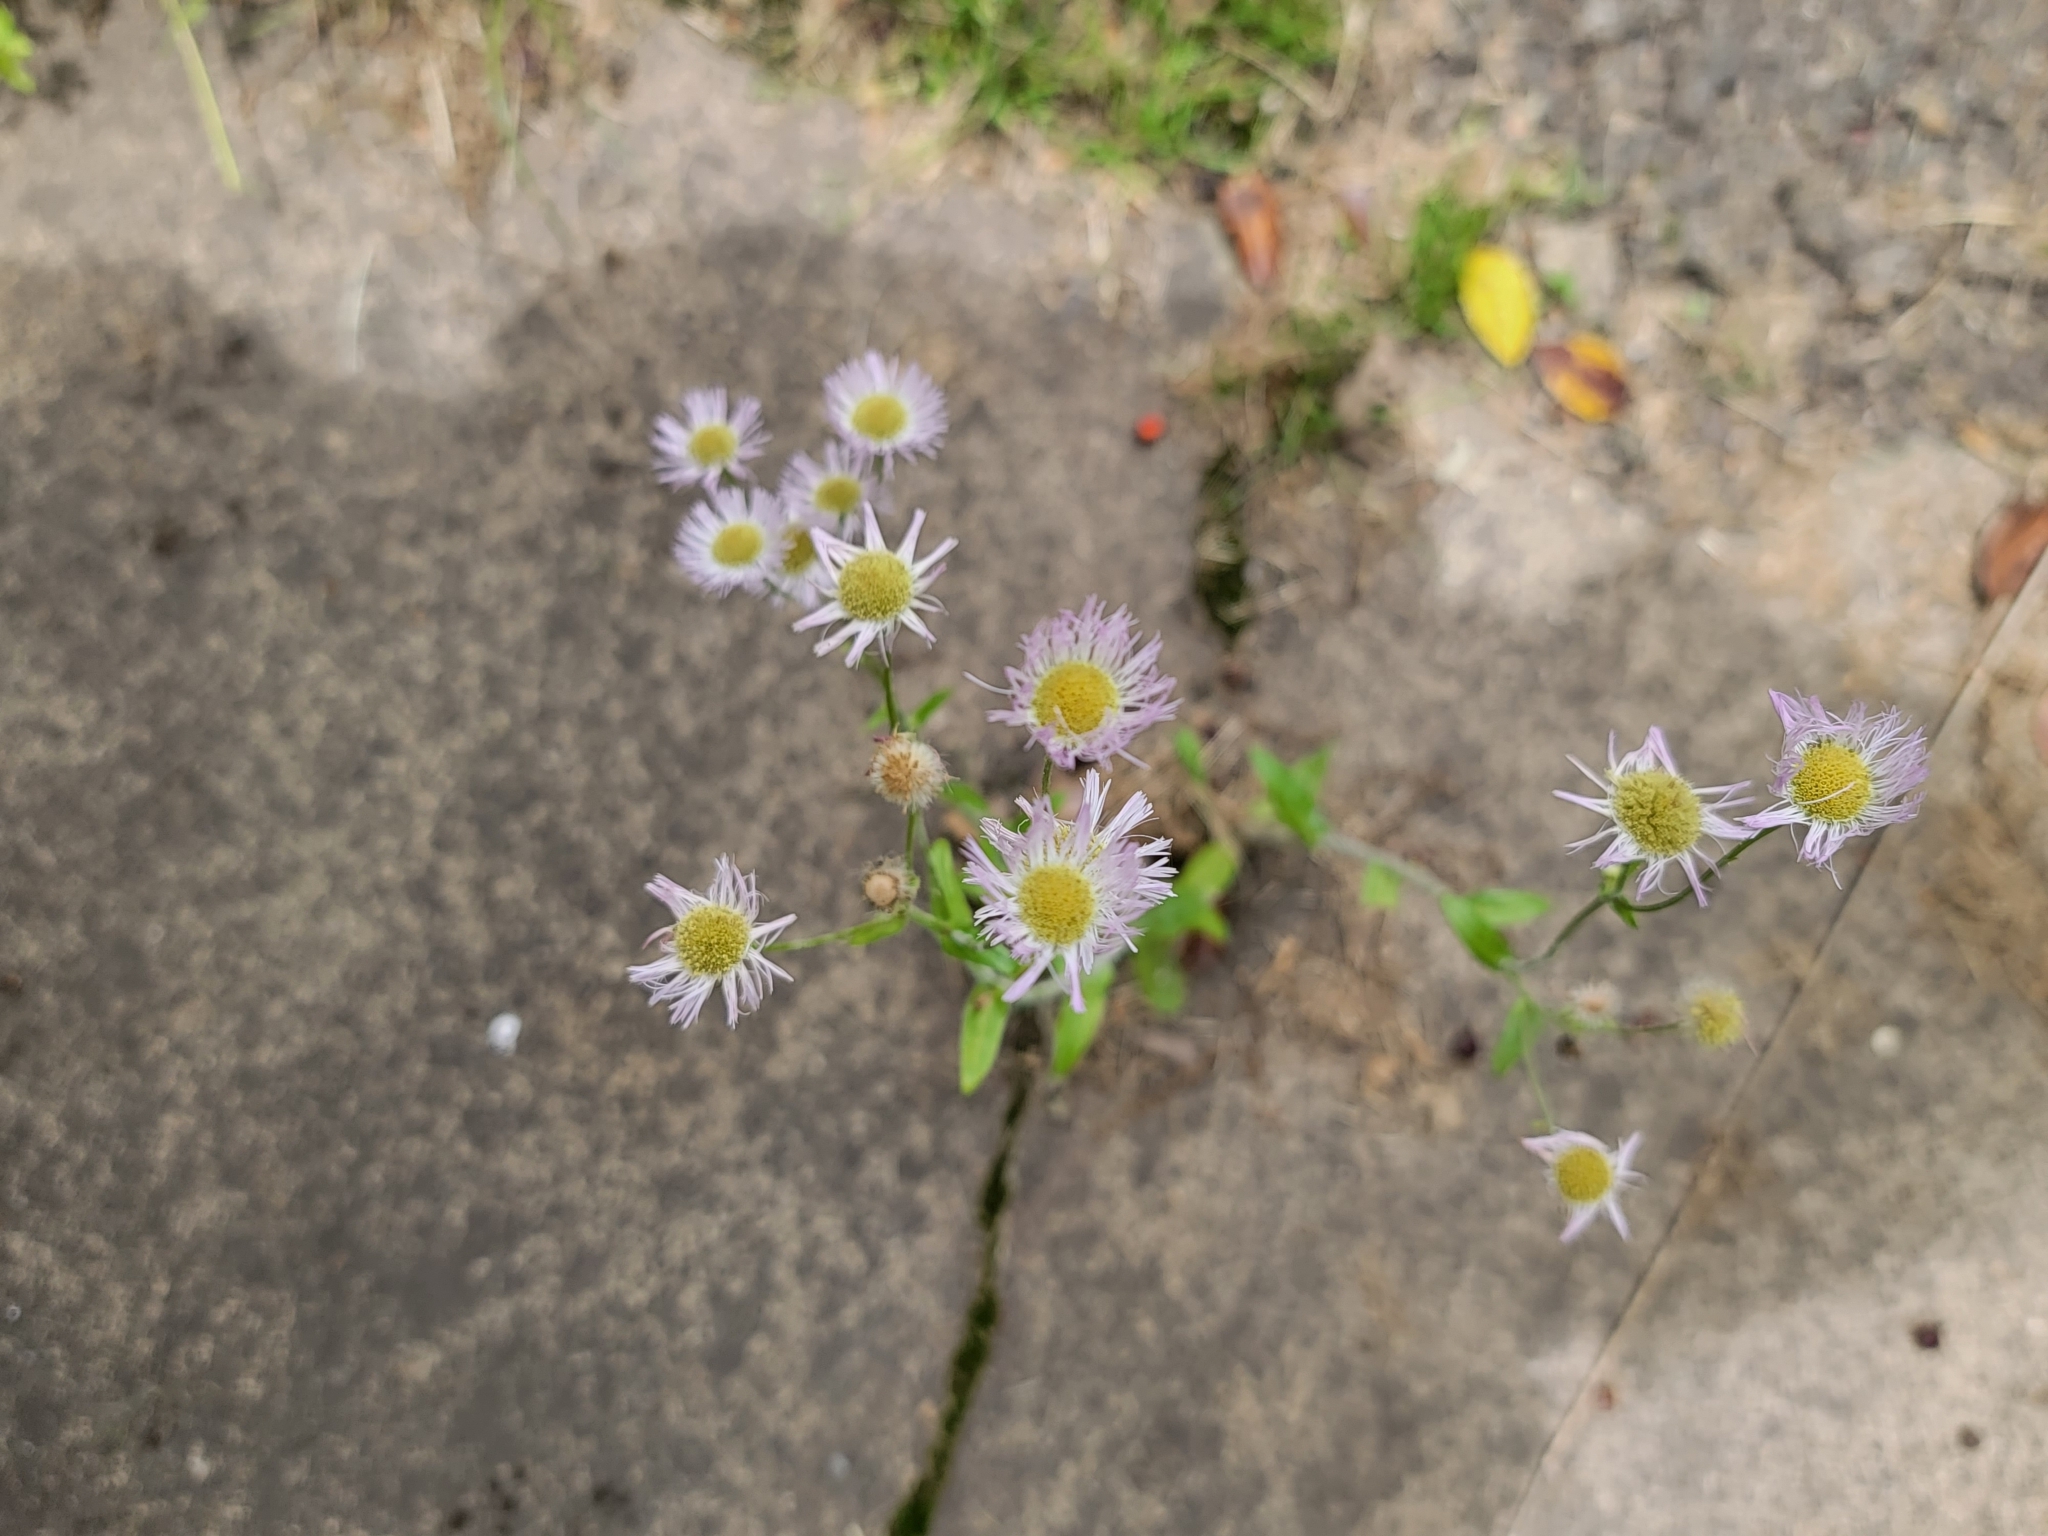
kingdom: Plantae
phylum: Tracheophyta
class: Magnoliopsida
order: Asterales
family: Asteraceae
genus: Erigeron
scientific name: Erigeron philadelphicus
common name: Robin's-plantain
